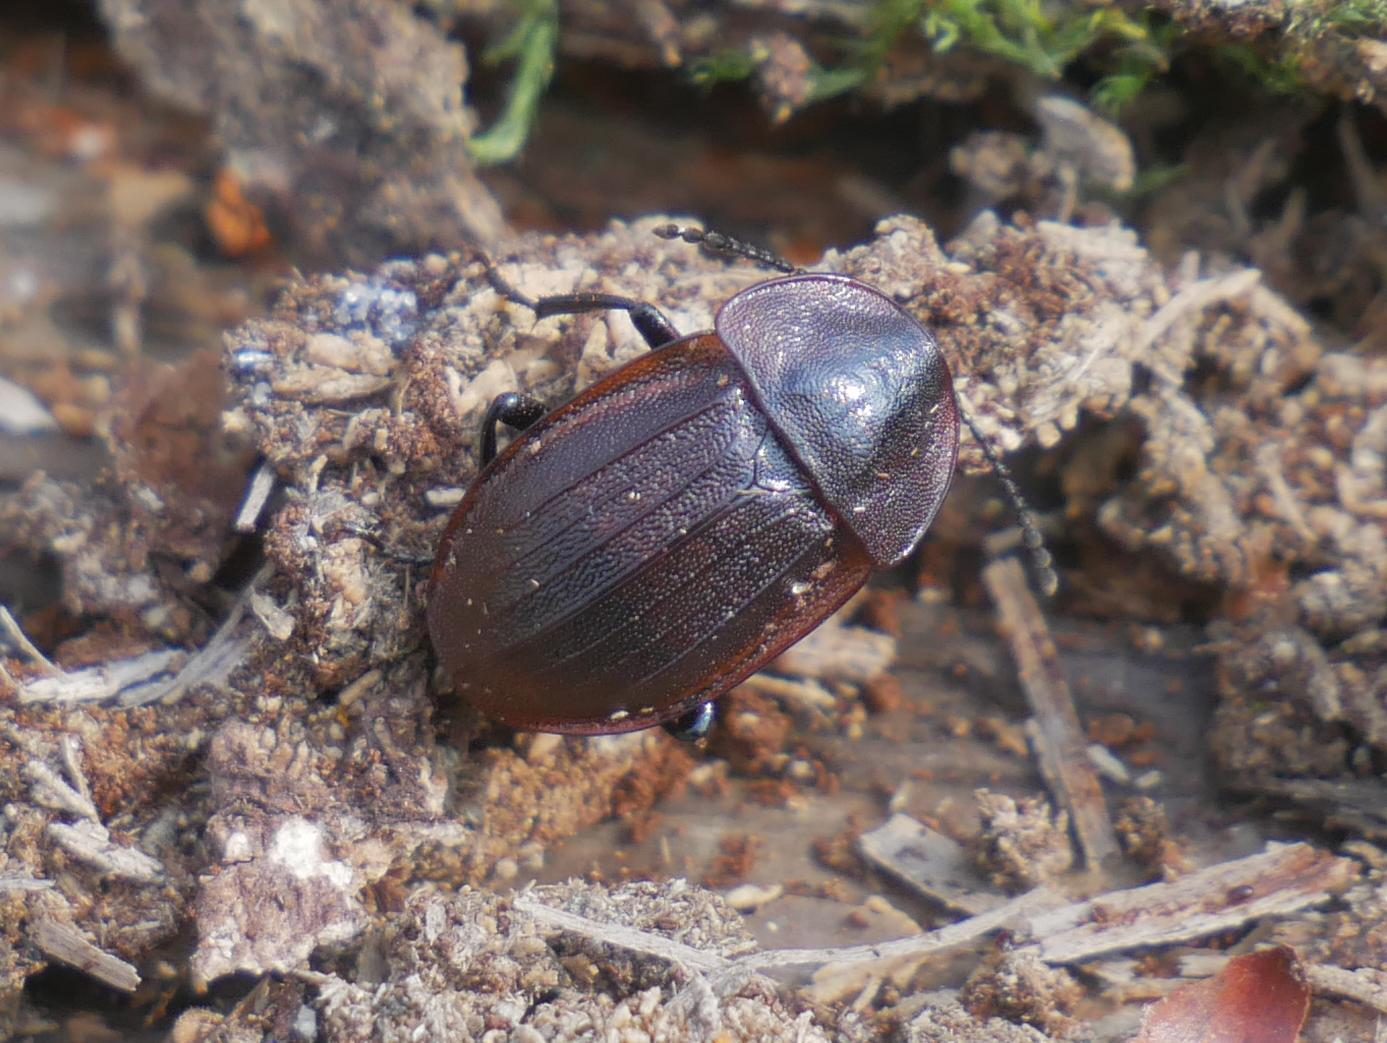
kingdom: Animalia
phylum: Arthropoda
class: Insecta
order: Coleoptera
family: Staphylinidae
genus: Silpha
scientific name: Silpha atrata
